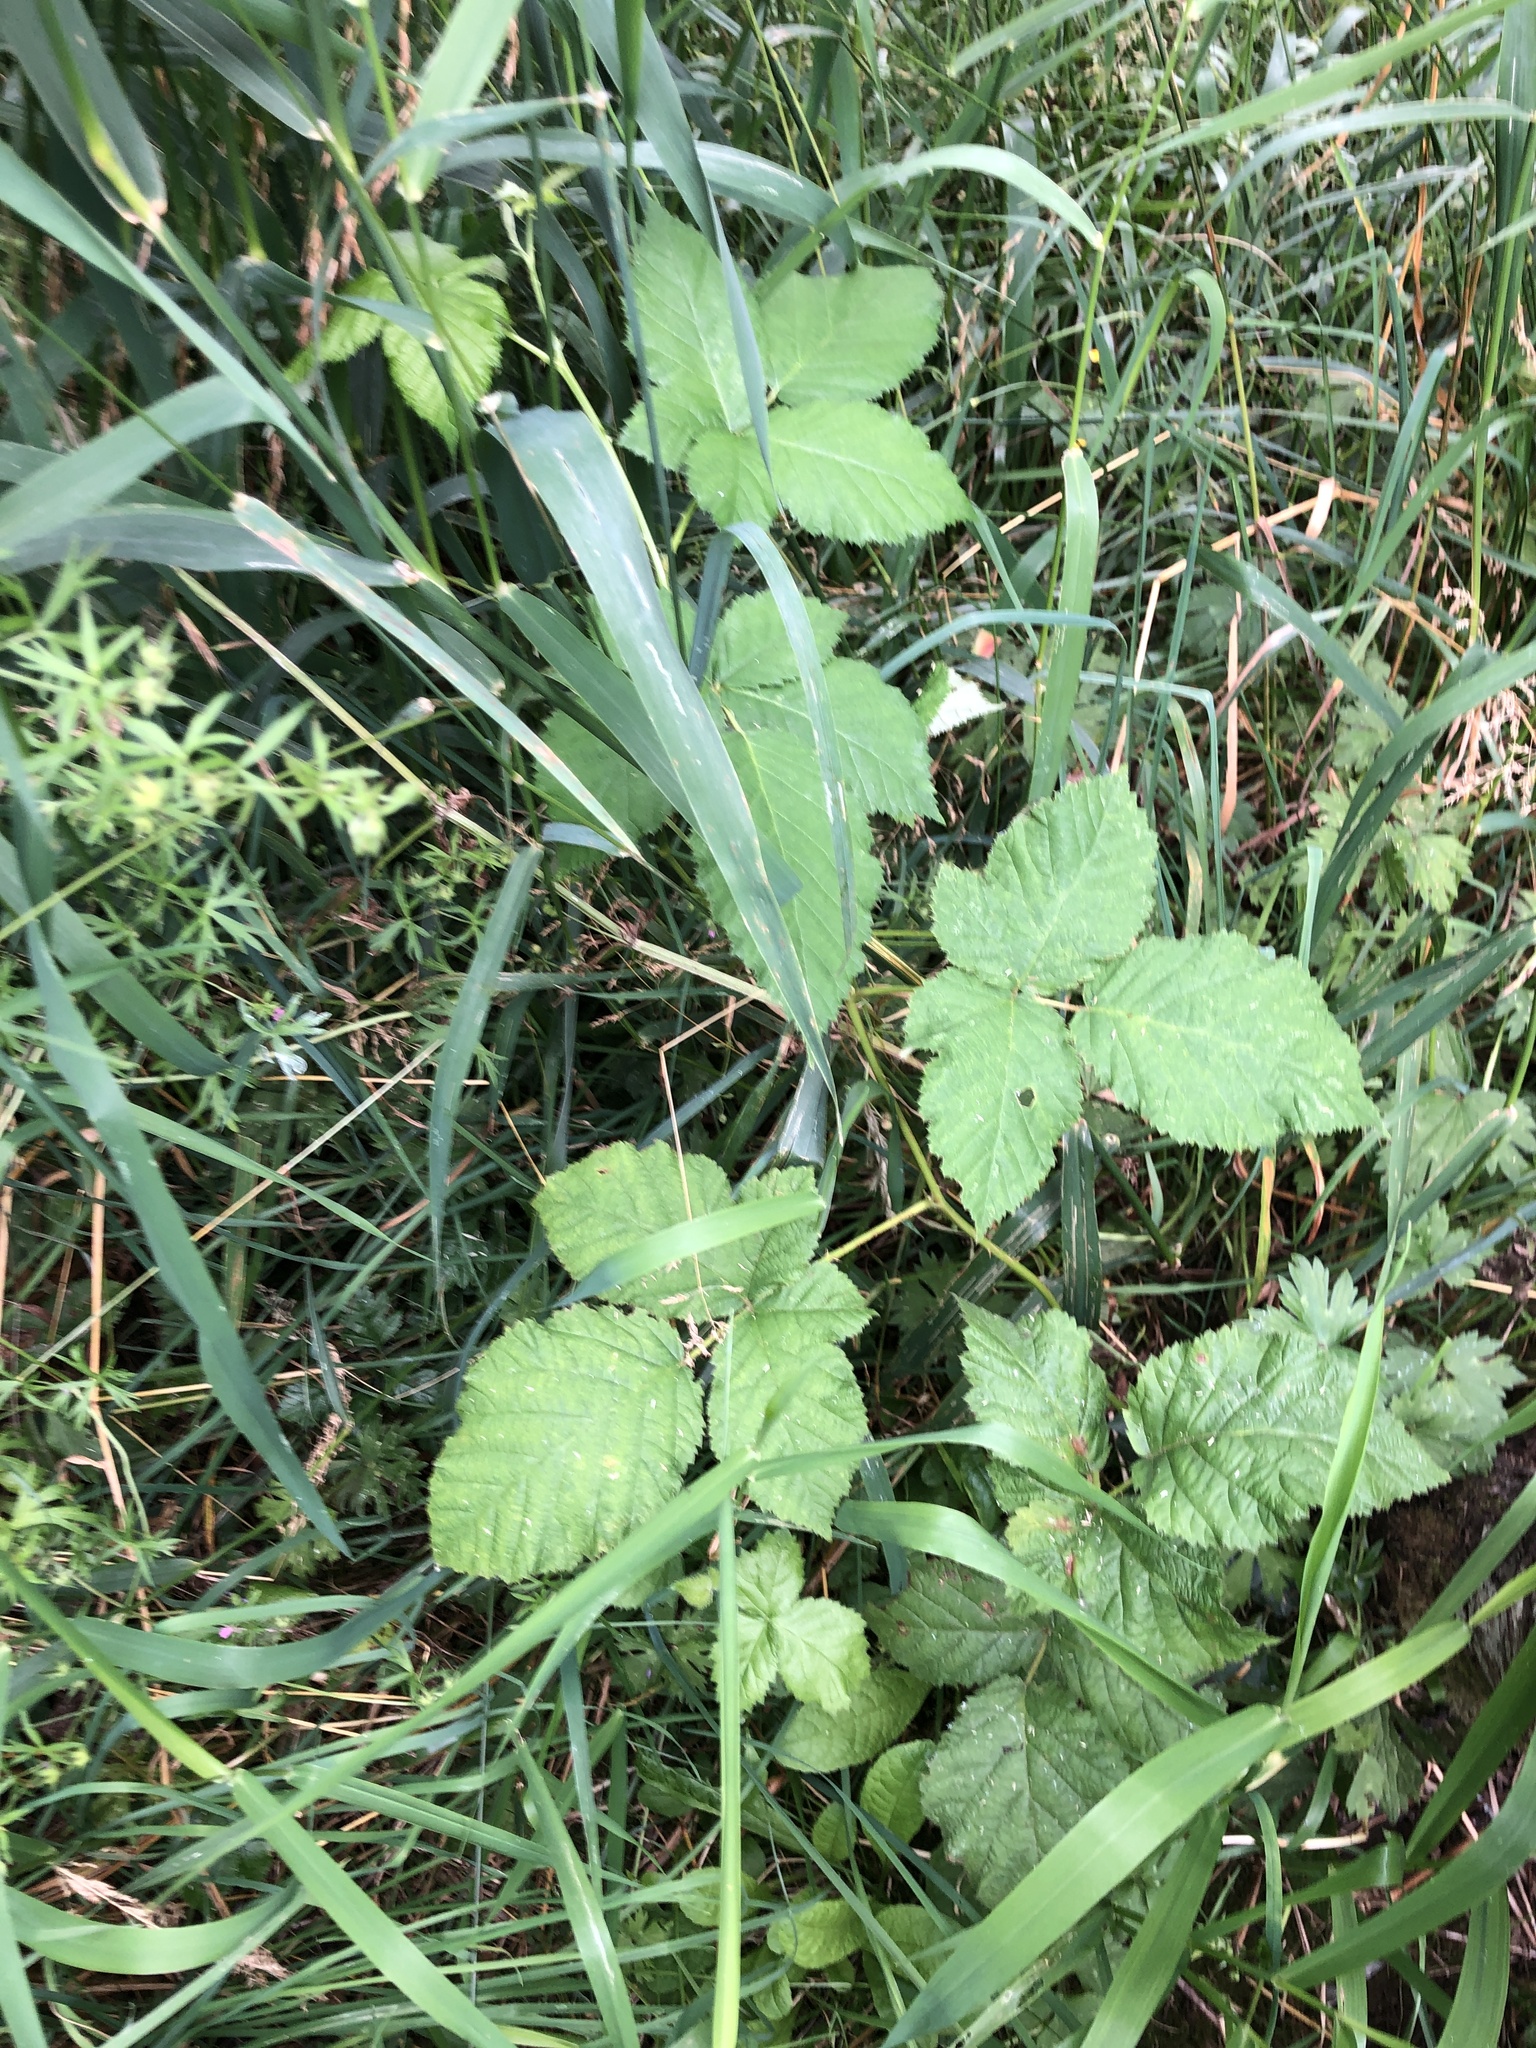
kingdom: Plantae
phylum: Tracheophyta
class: Magnoliopsida
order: Rosales
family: Rosaceae
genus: Rubus
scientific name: Rubus armeniacus
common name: Himalayan blackberry
